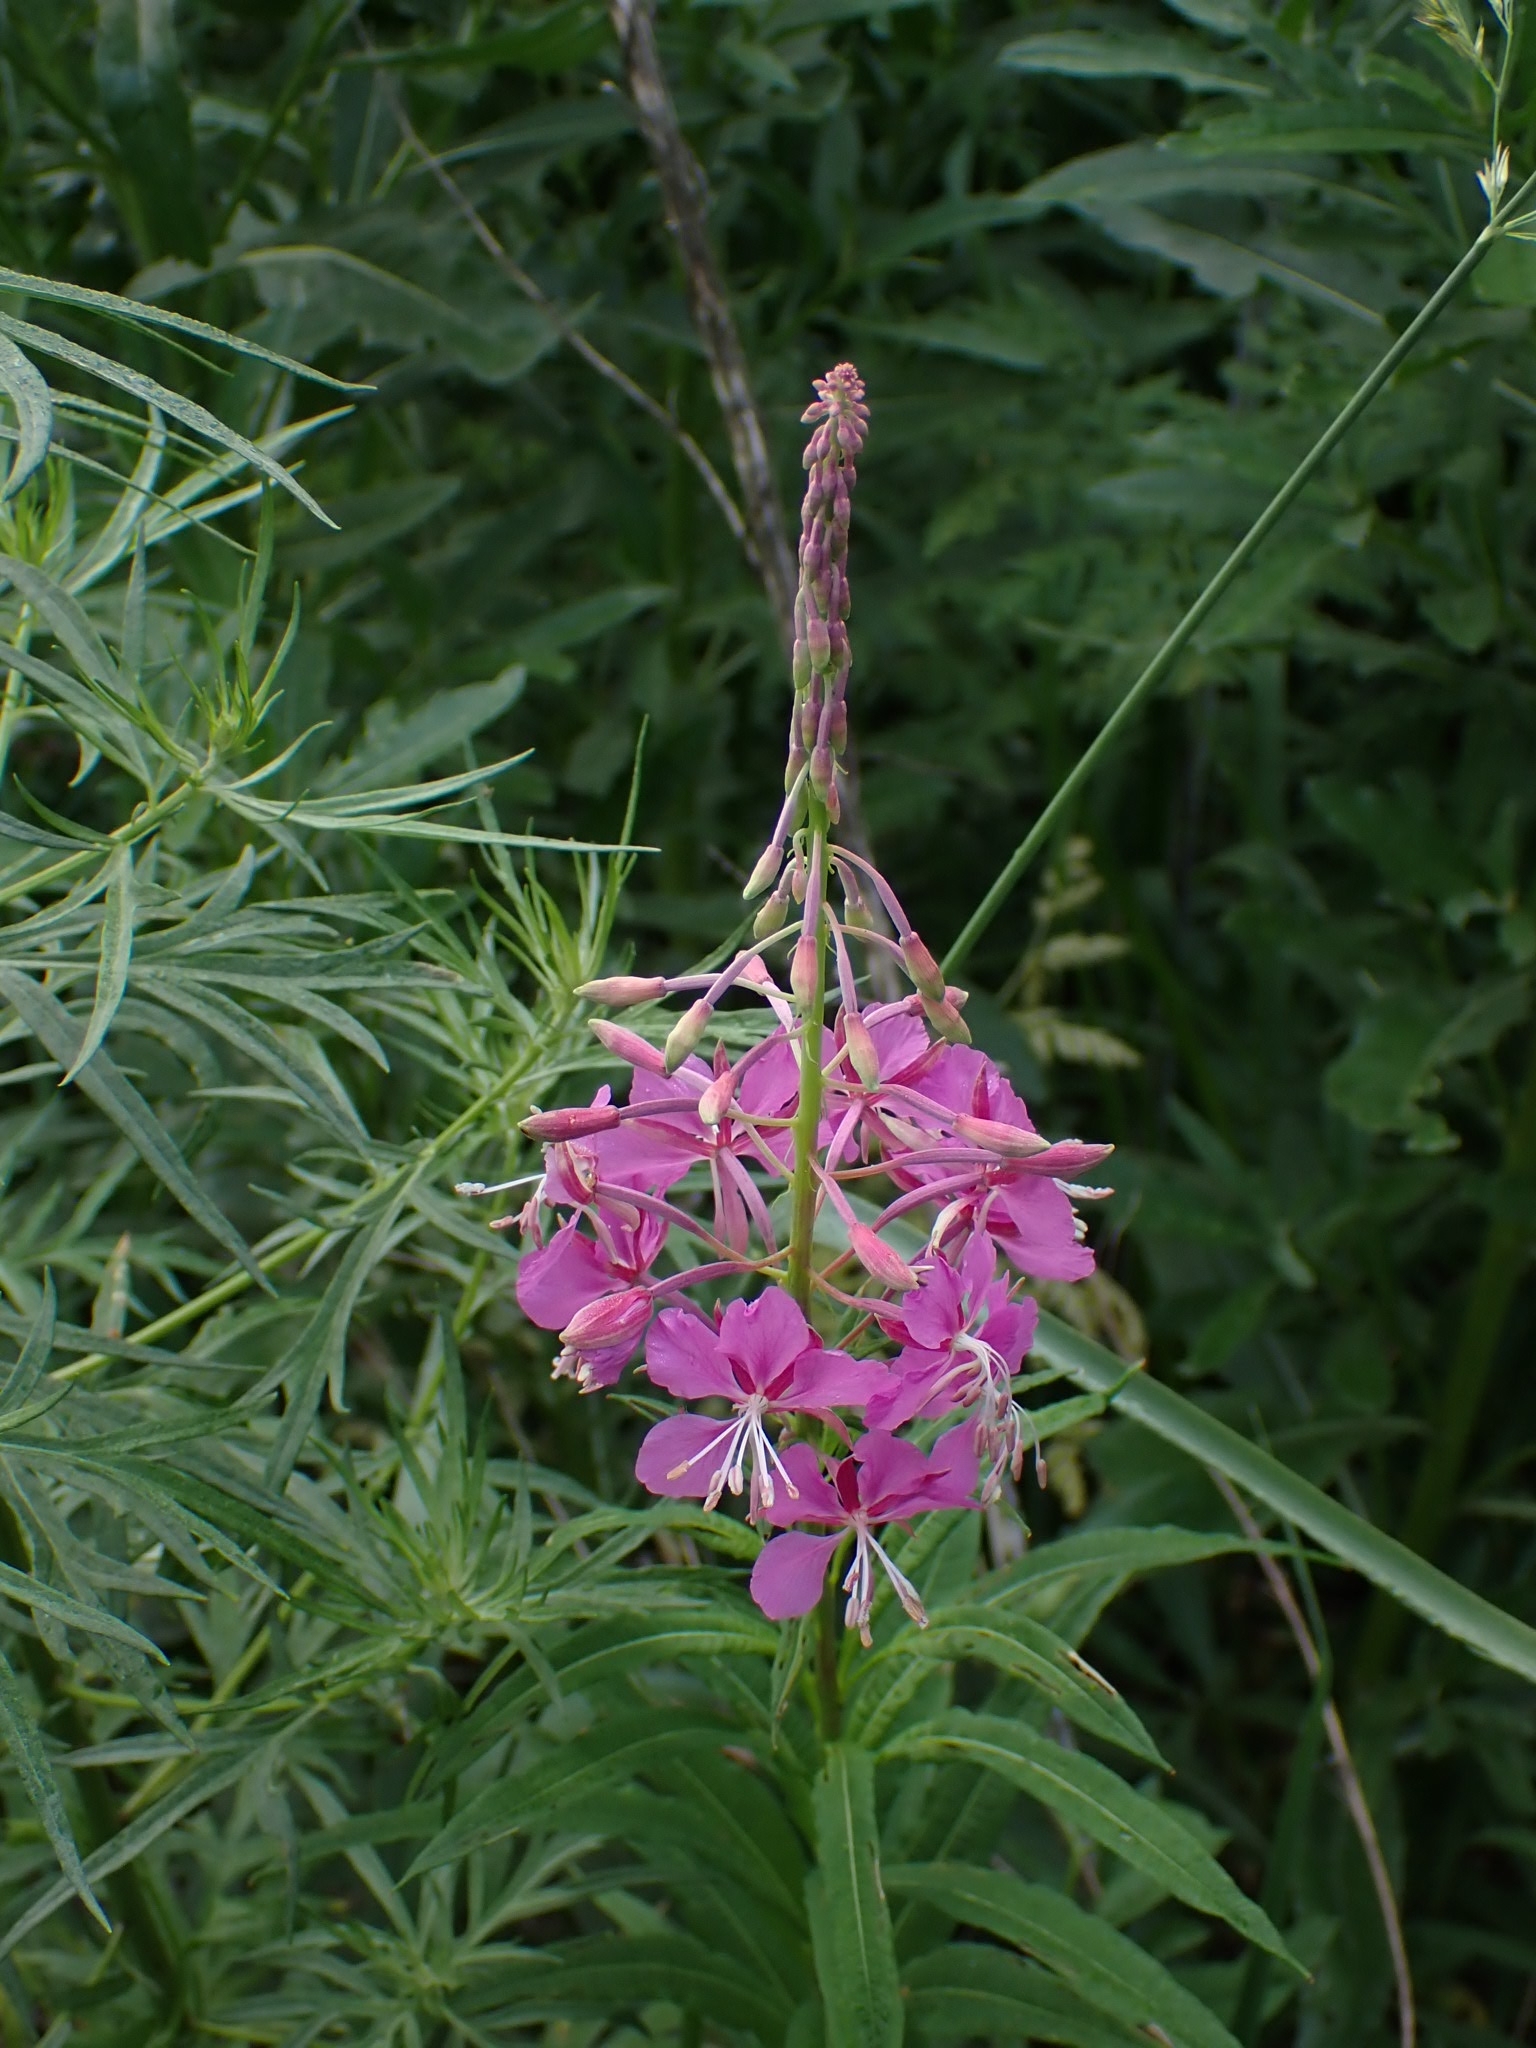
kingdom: Plantae
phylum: Tracheophyta
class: Magnoliopsida
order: Myrtales
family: Onagraceae
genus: Chamaenerion
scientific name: Chamaenerion angustifolium
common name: Fireweed
